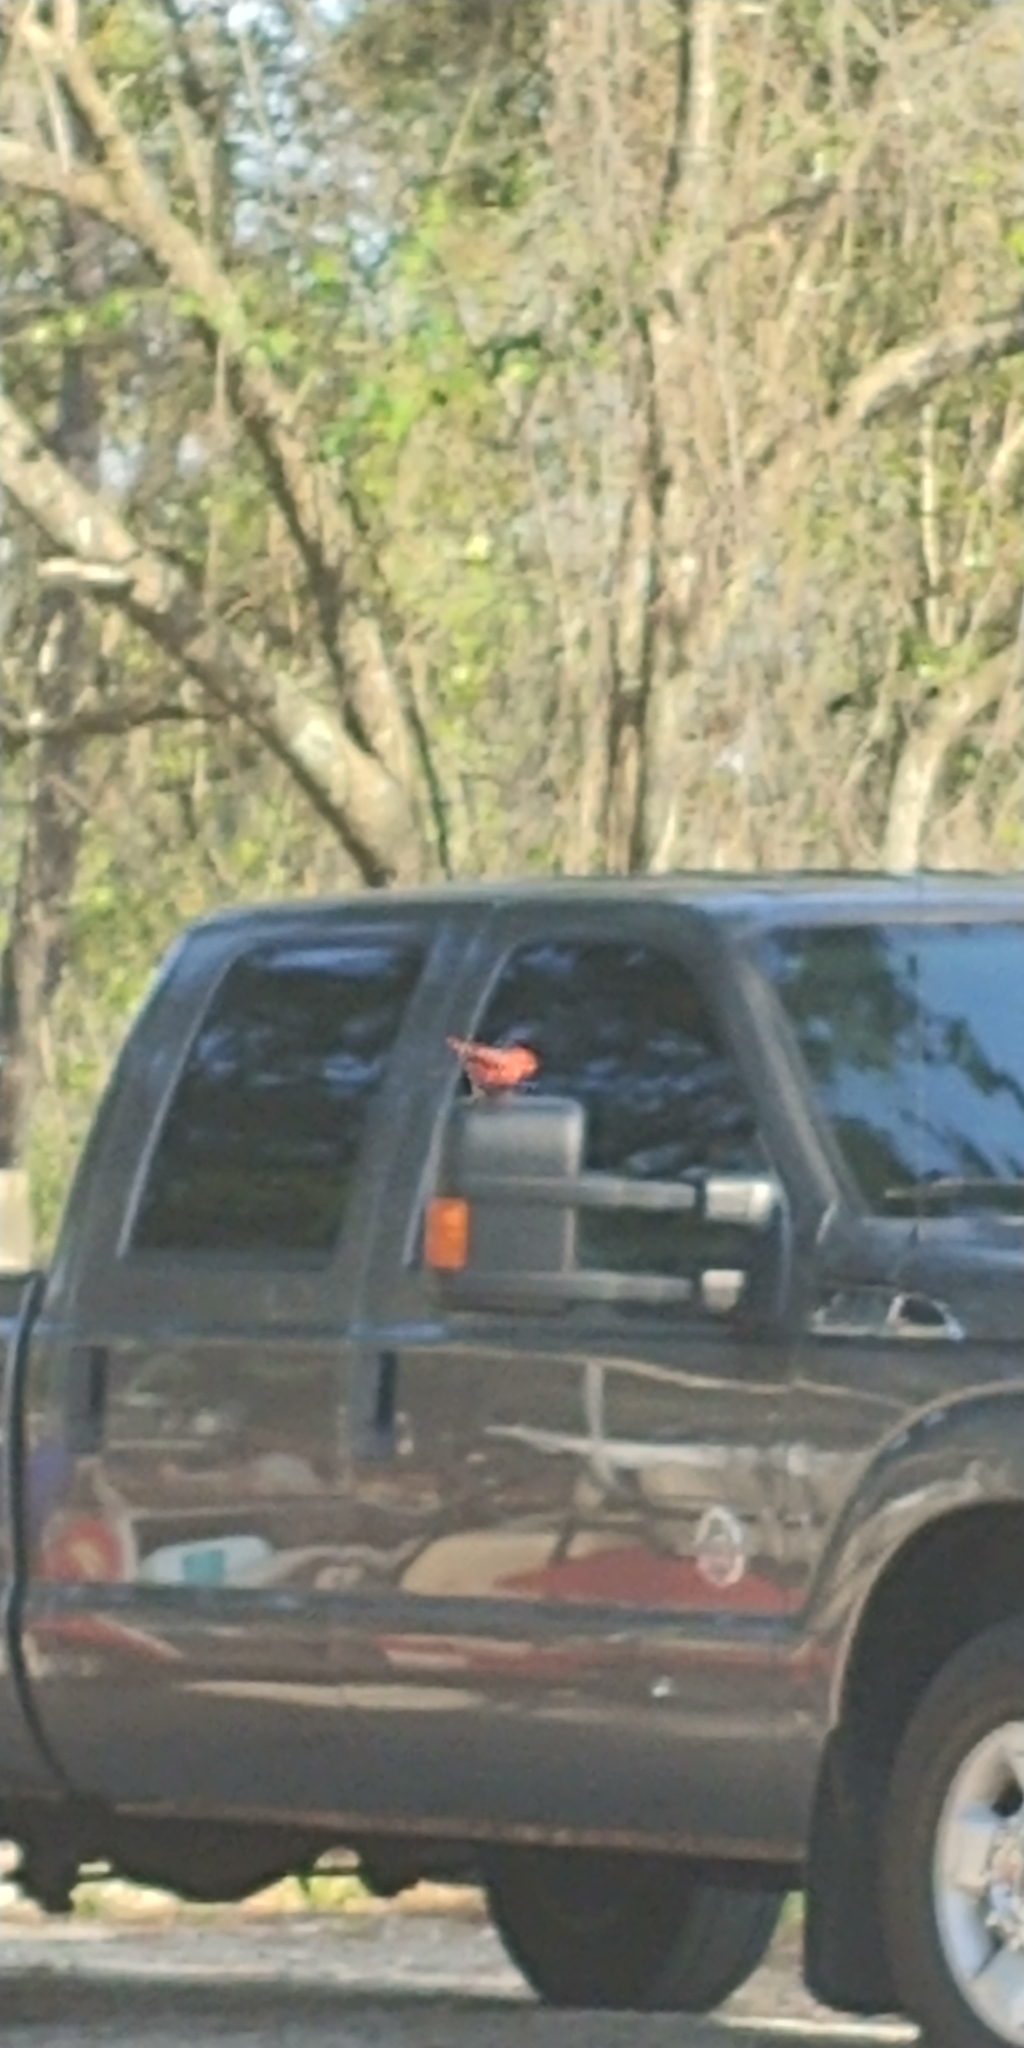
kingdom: Animalia
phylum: Chordata
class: Aves
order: Passeriformes
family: Cardinalidae
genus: Cardinalis
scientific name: Cardinalis cardinalis
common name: Northern cardinal
